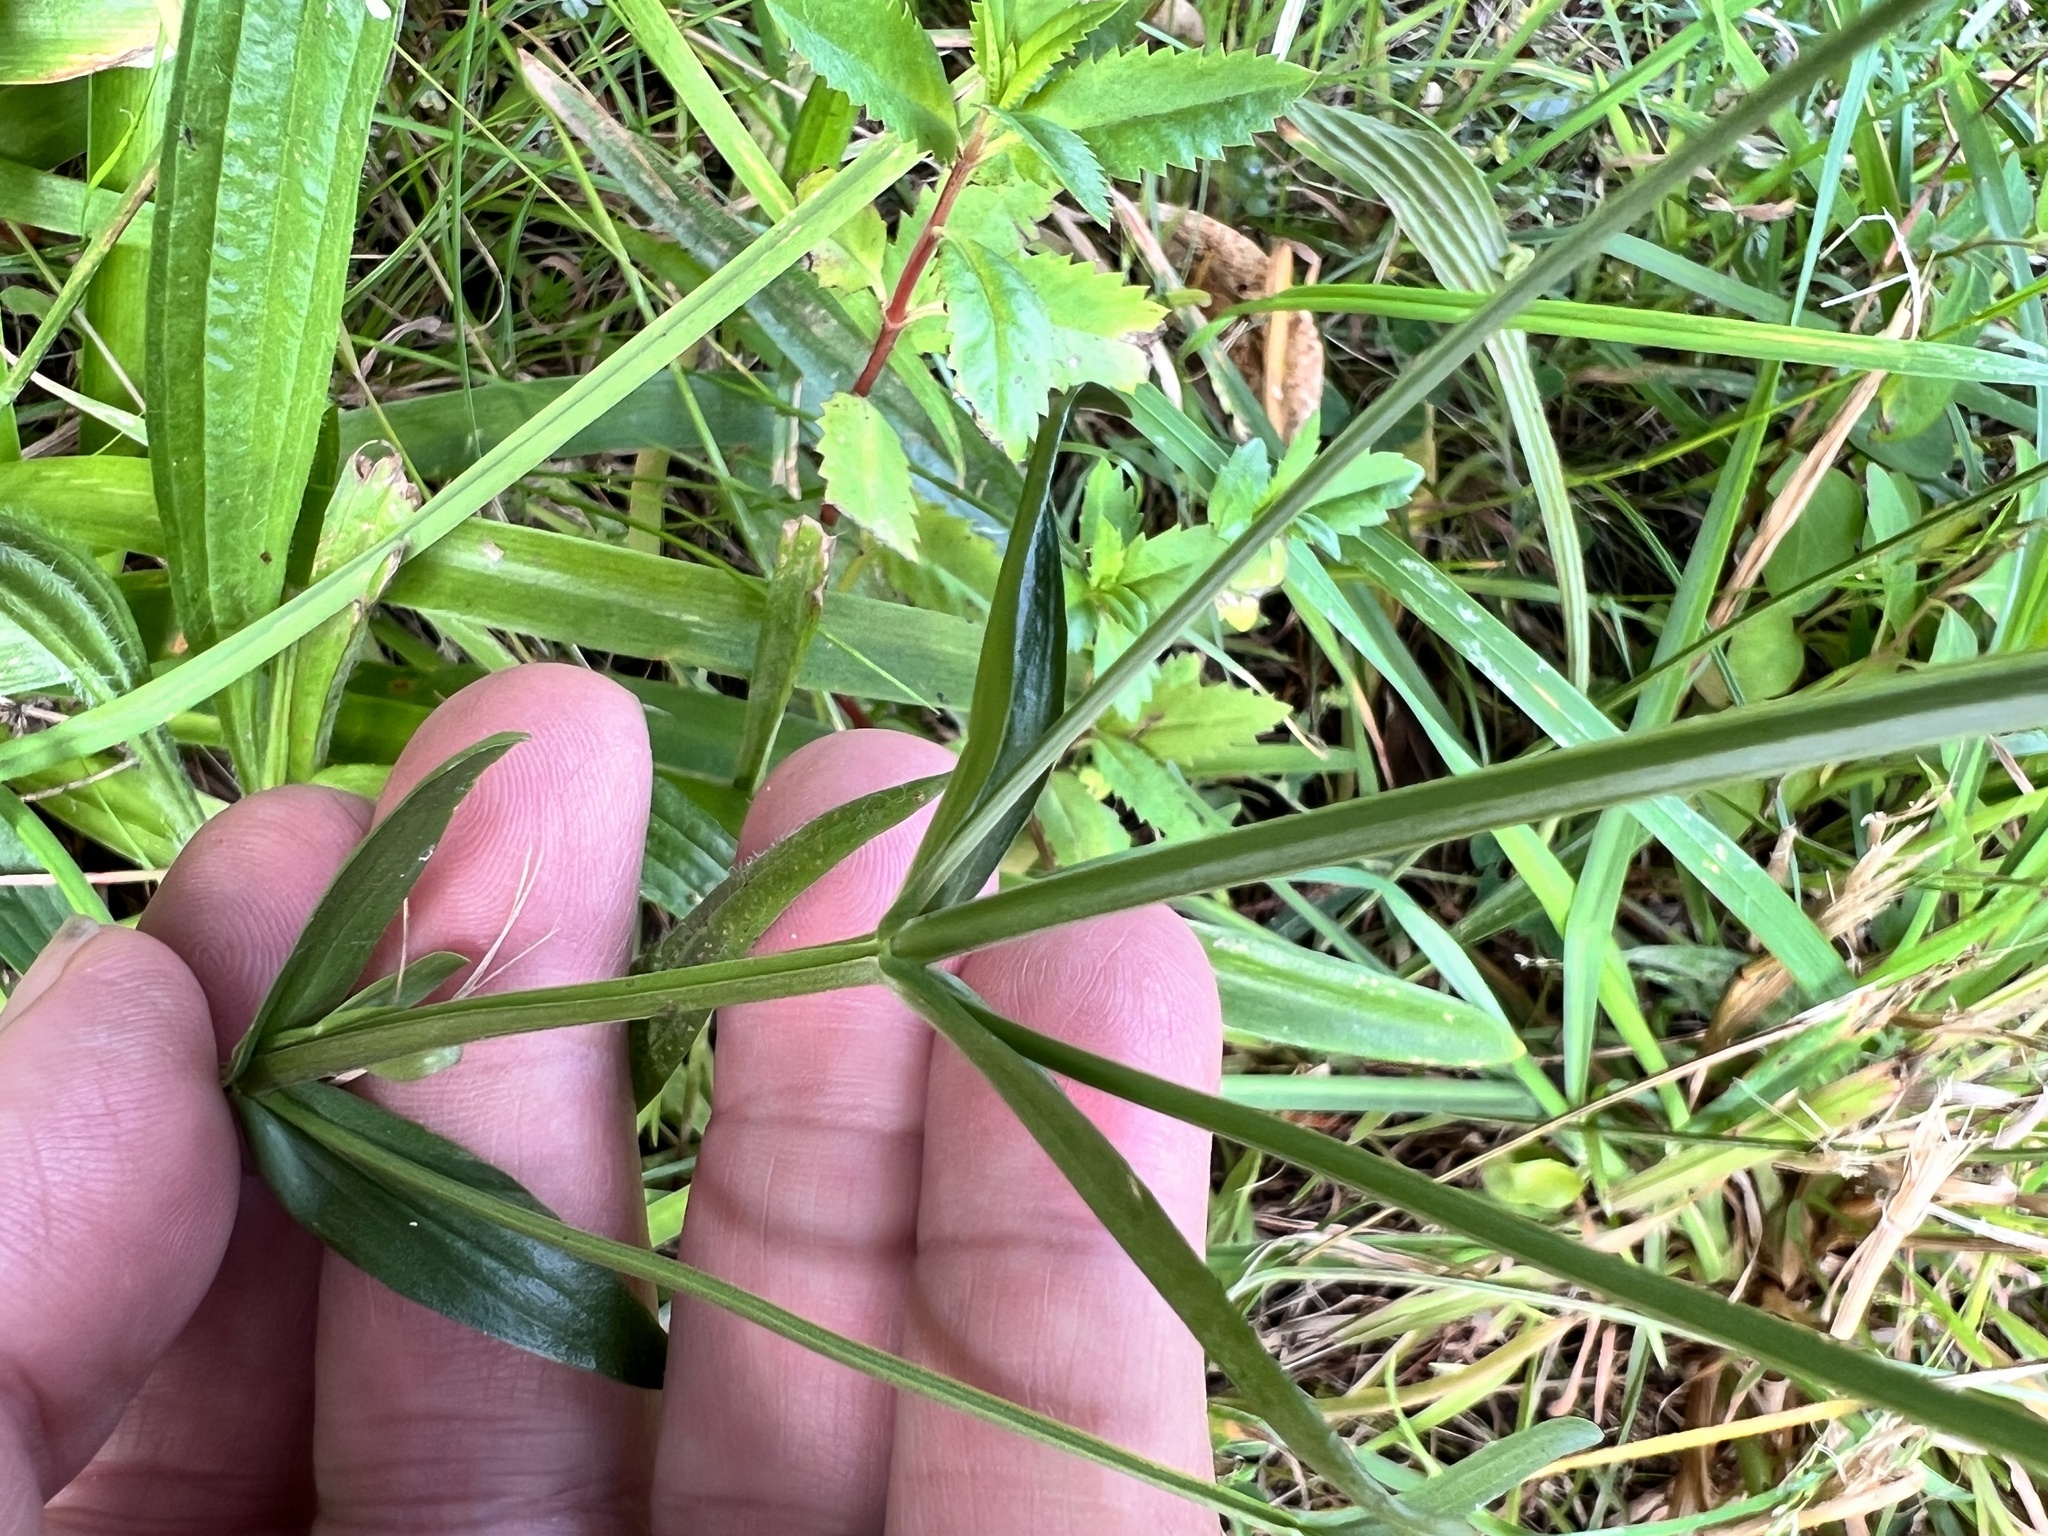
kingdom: Plantae
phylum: Tracheophyta
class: Magnoliopsida
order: Lamiales
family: Verbenaceae
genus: Verbena
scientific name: Verbena incompta
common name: Purpletop vervain
